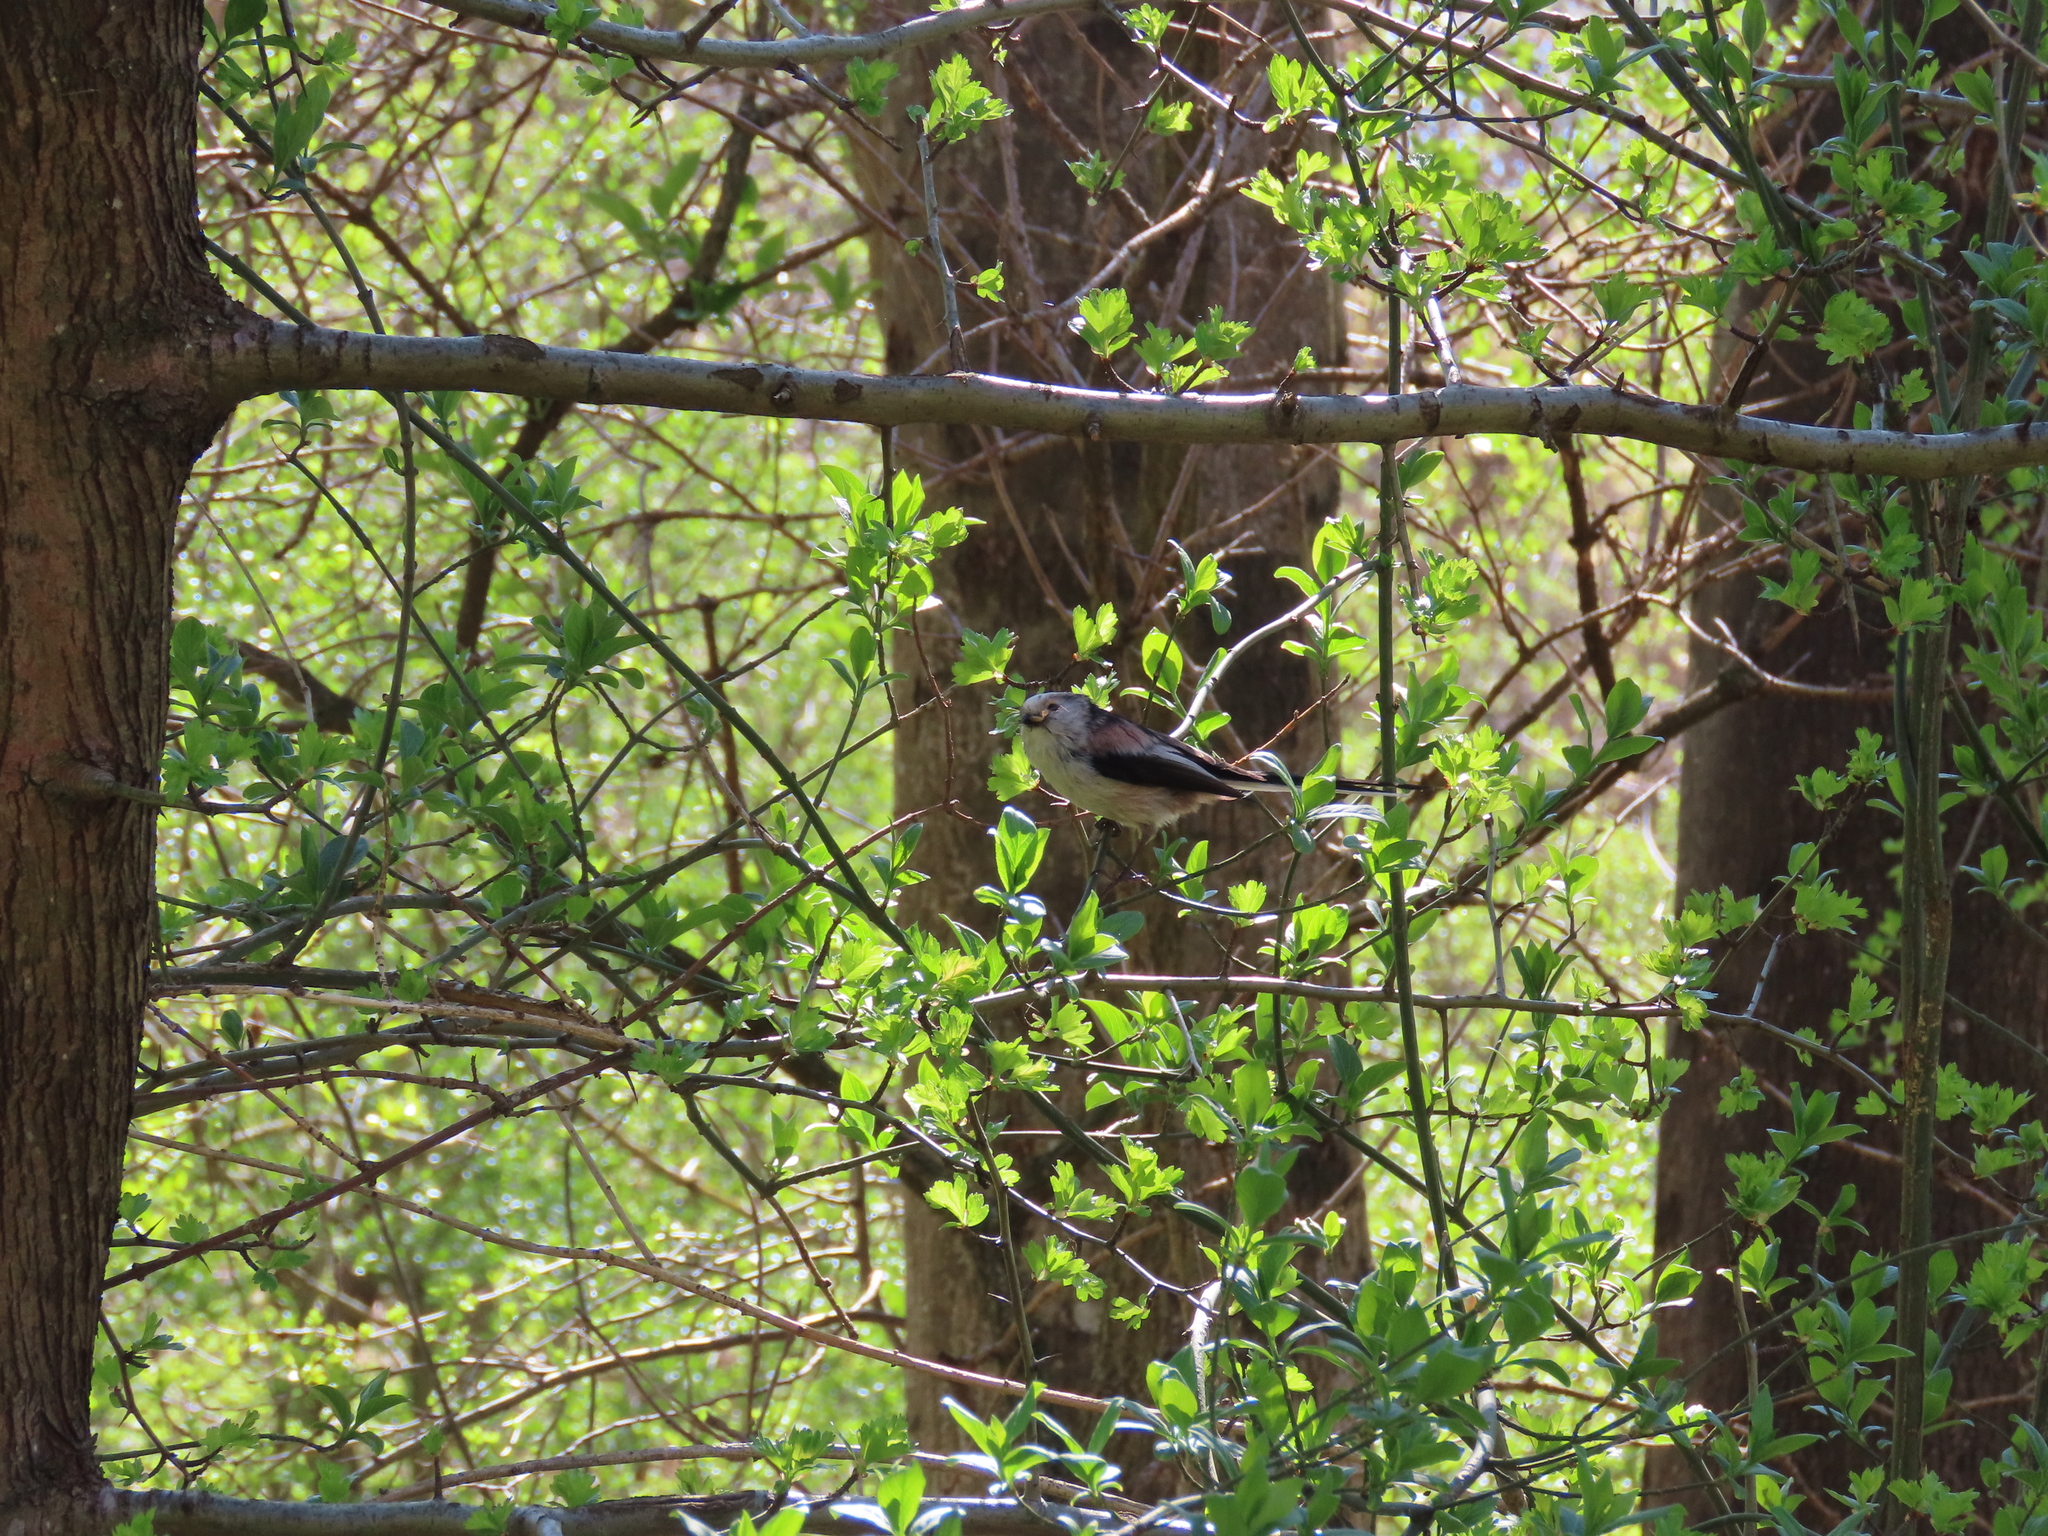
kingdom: Animalia
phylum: Chordata
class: Aves
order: Passeriformes
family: Aegithalidae
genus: Aegithalos
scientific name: Aegithalos caudatus
